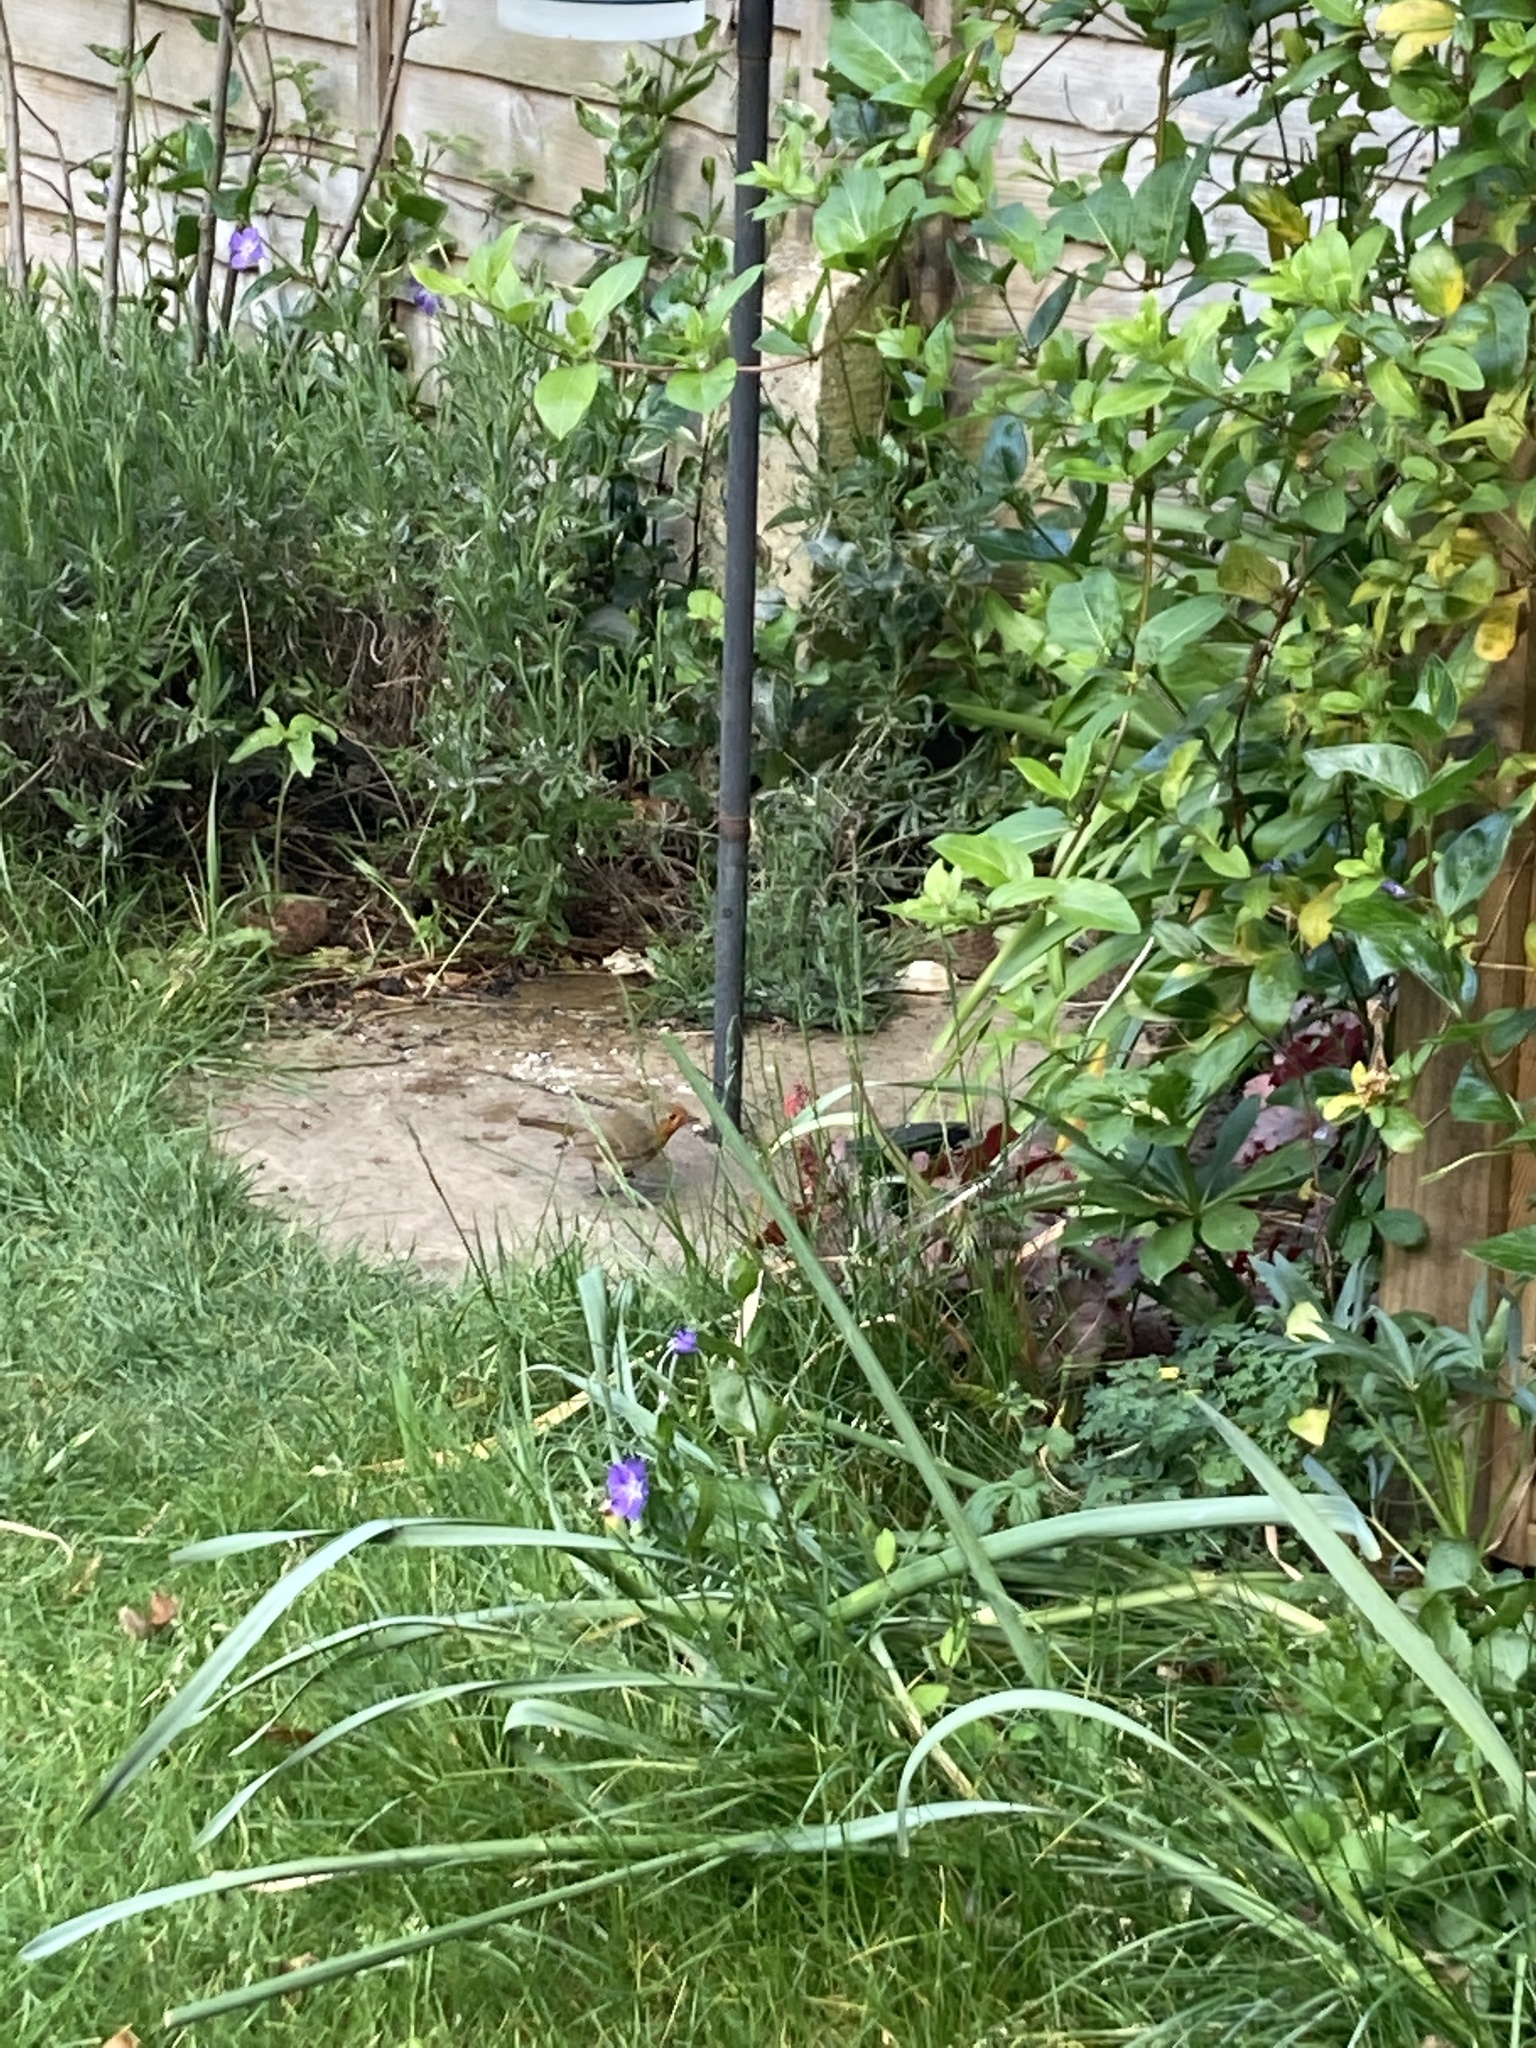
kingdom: Animalia
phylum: Chordata
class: Aves
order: Passeriformes
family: Muscicapidae
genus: Erithacus
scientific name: Erithacus rubecula
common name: European robin
